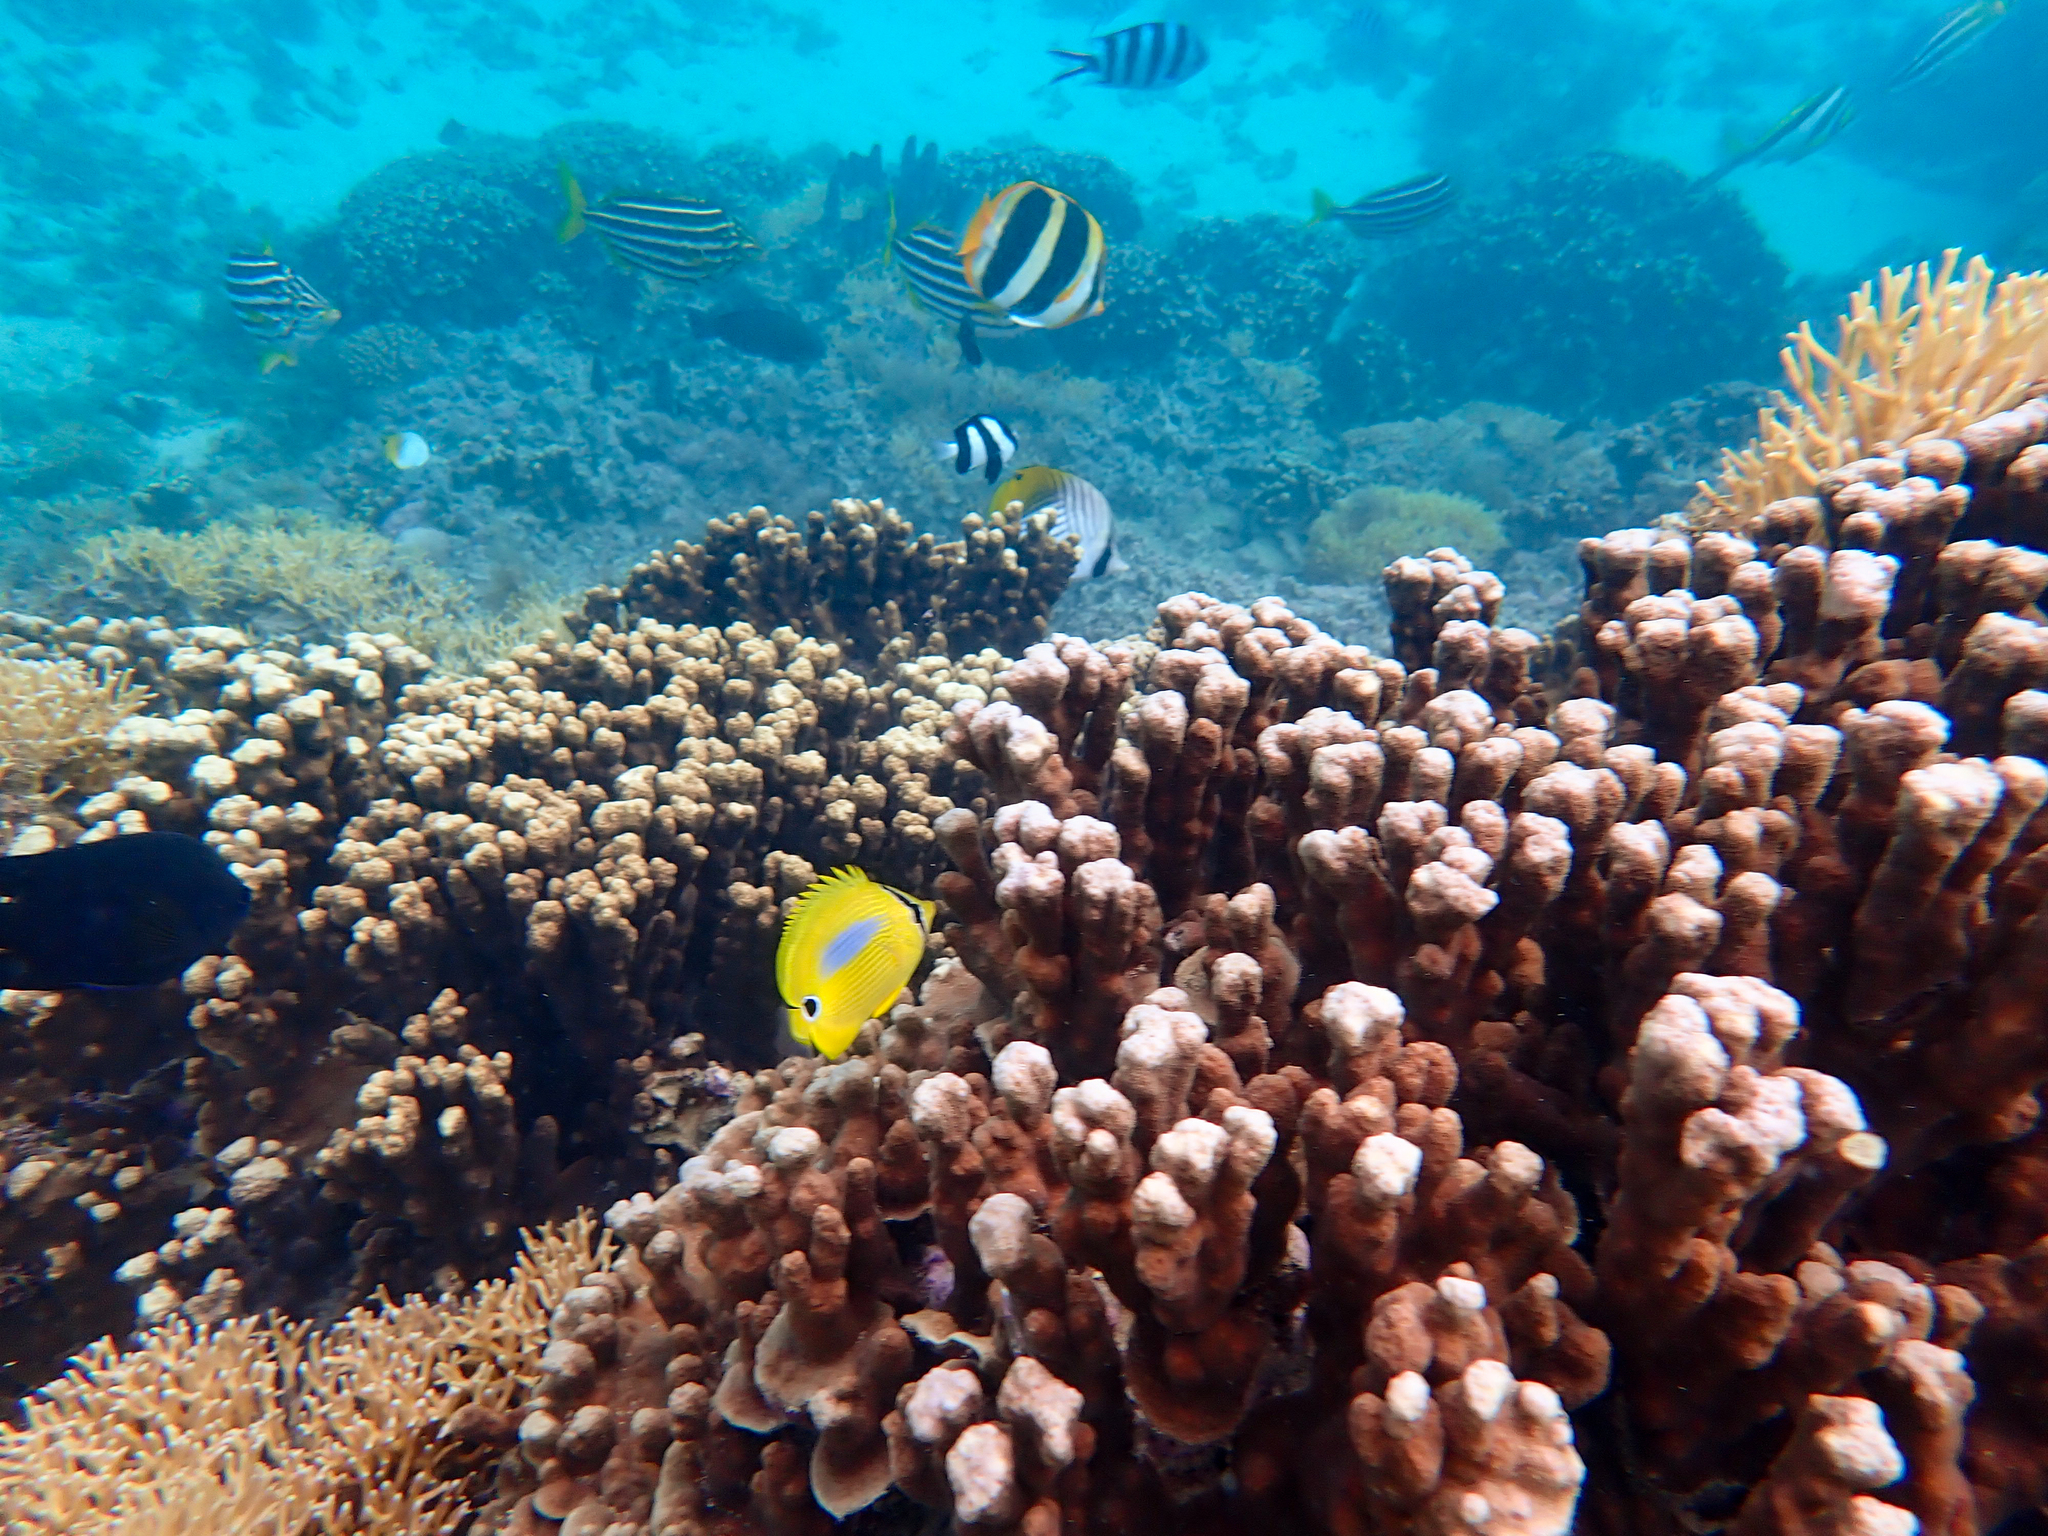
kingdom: Animalia
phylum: Chordata
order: Perciformes
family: Chaetodontidae
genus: Chaetodon
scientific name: Chaetodon plebeius
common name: Bluespot butterflyfish
